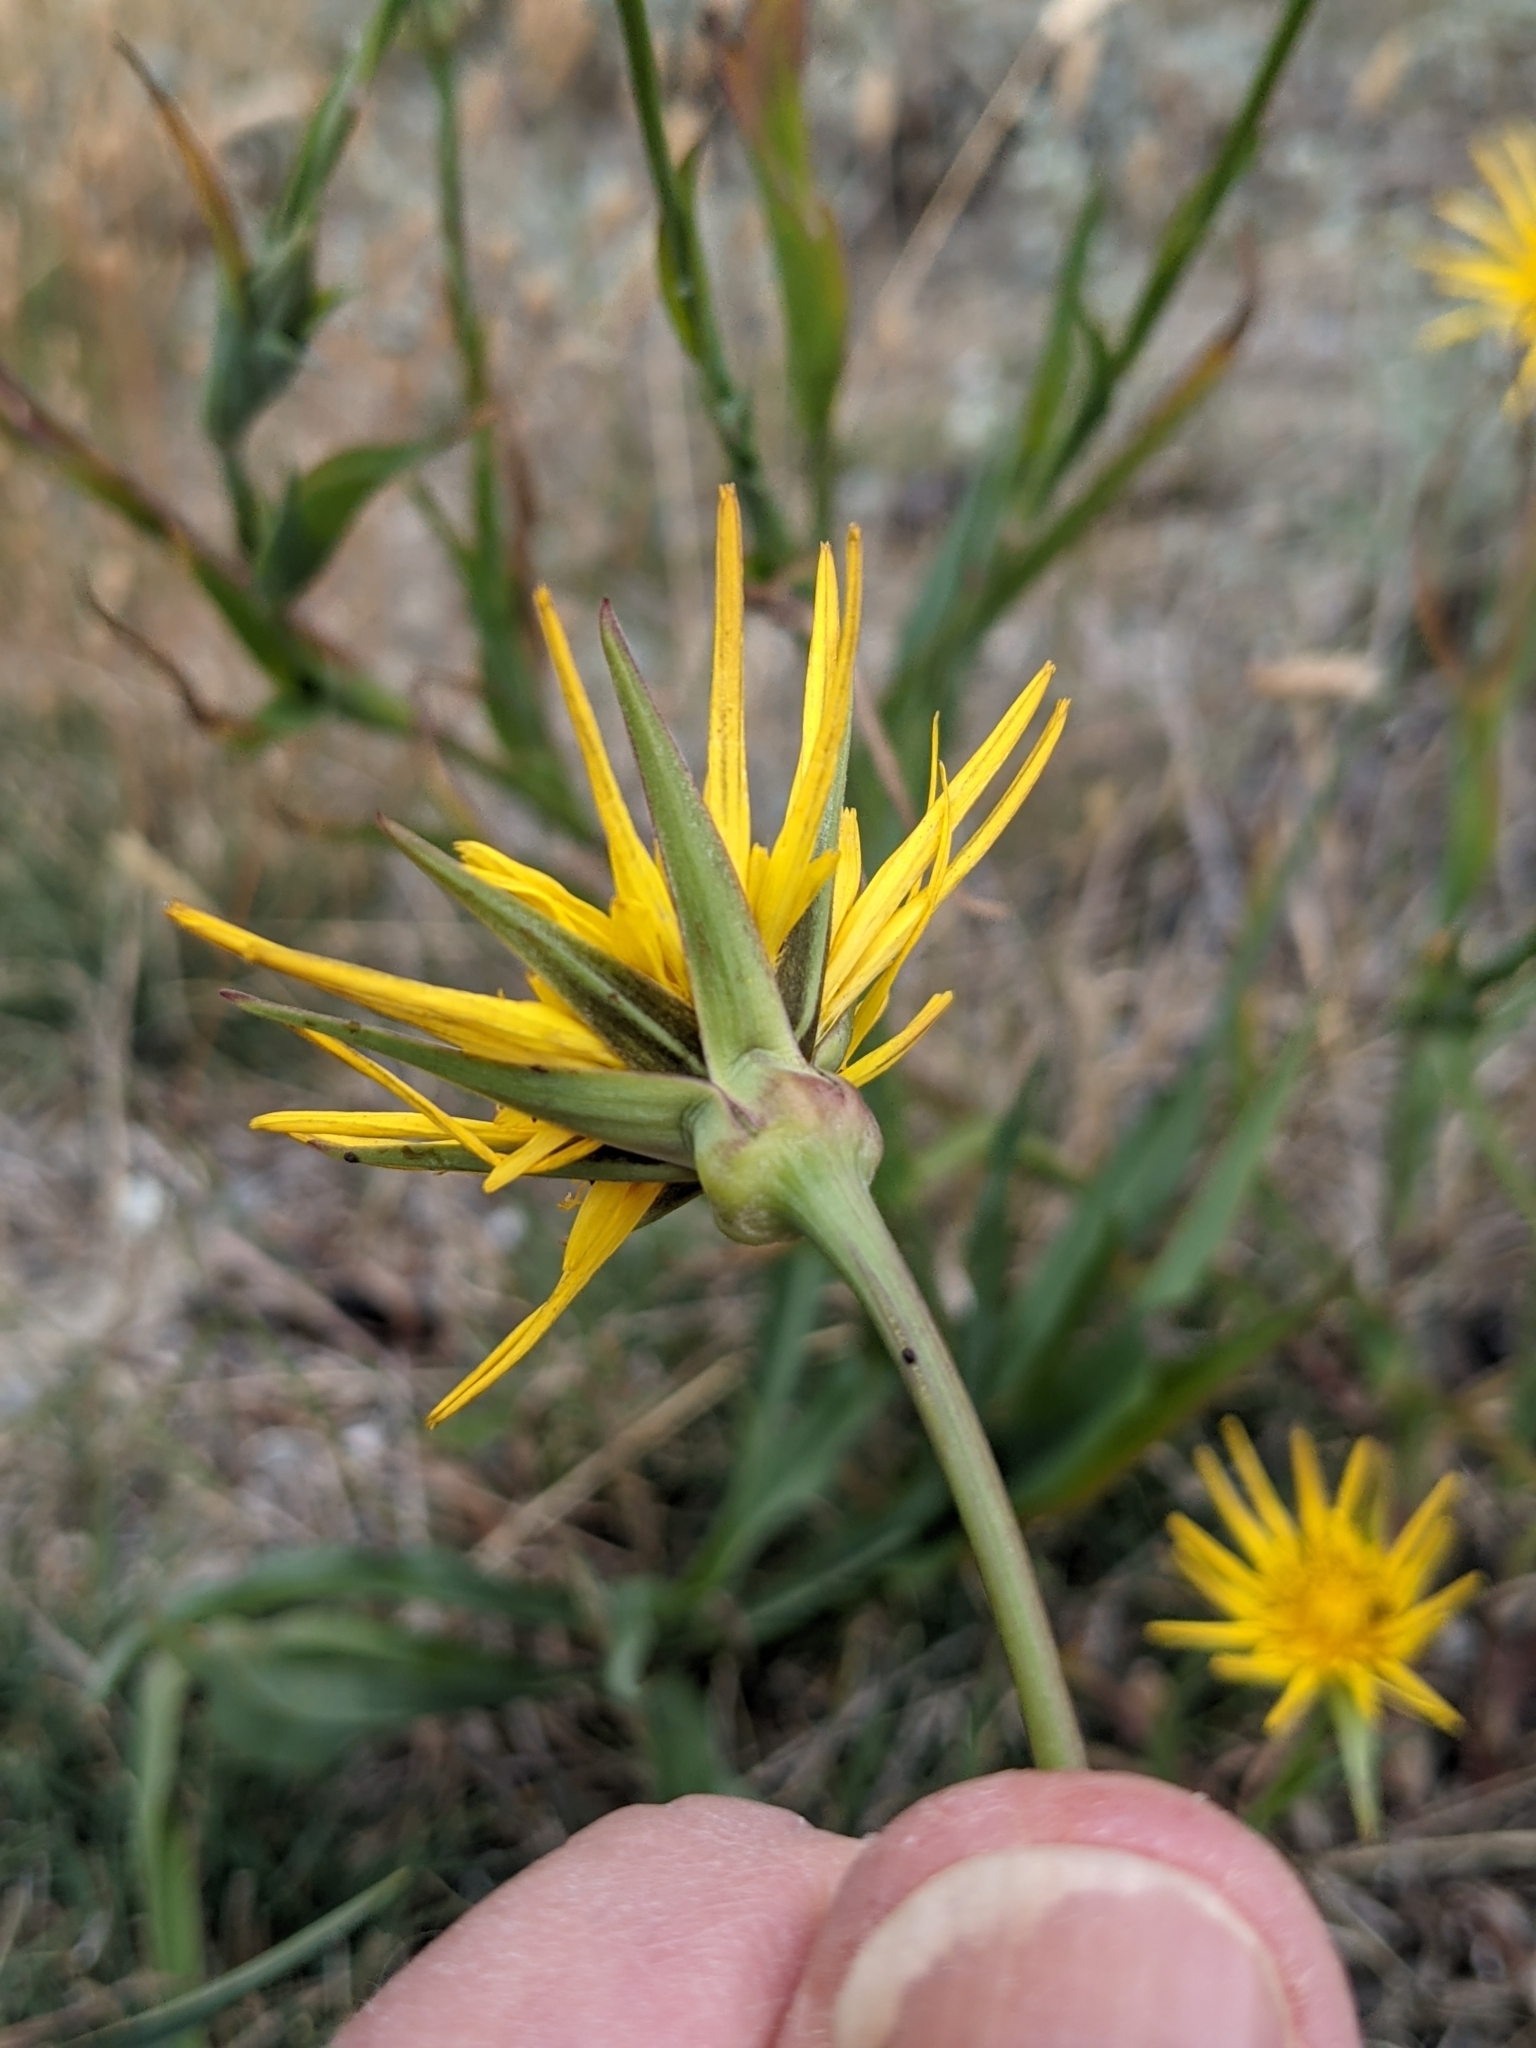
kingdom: Plantae
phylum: Tracheophyta
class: Magnoliopsida
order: Asterales
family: Asteraceae
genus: Tragopogon
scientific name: Tragopogon pratensis
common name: Goat's-beard
